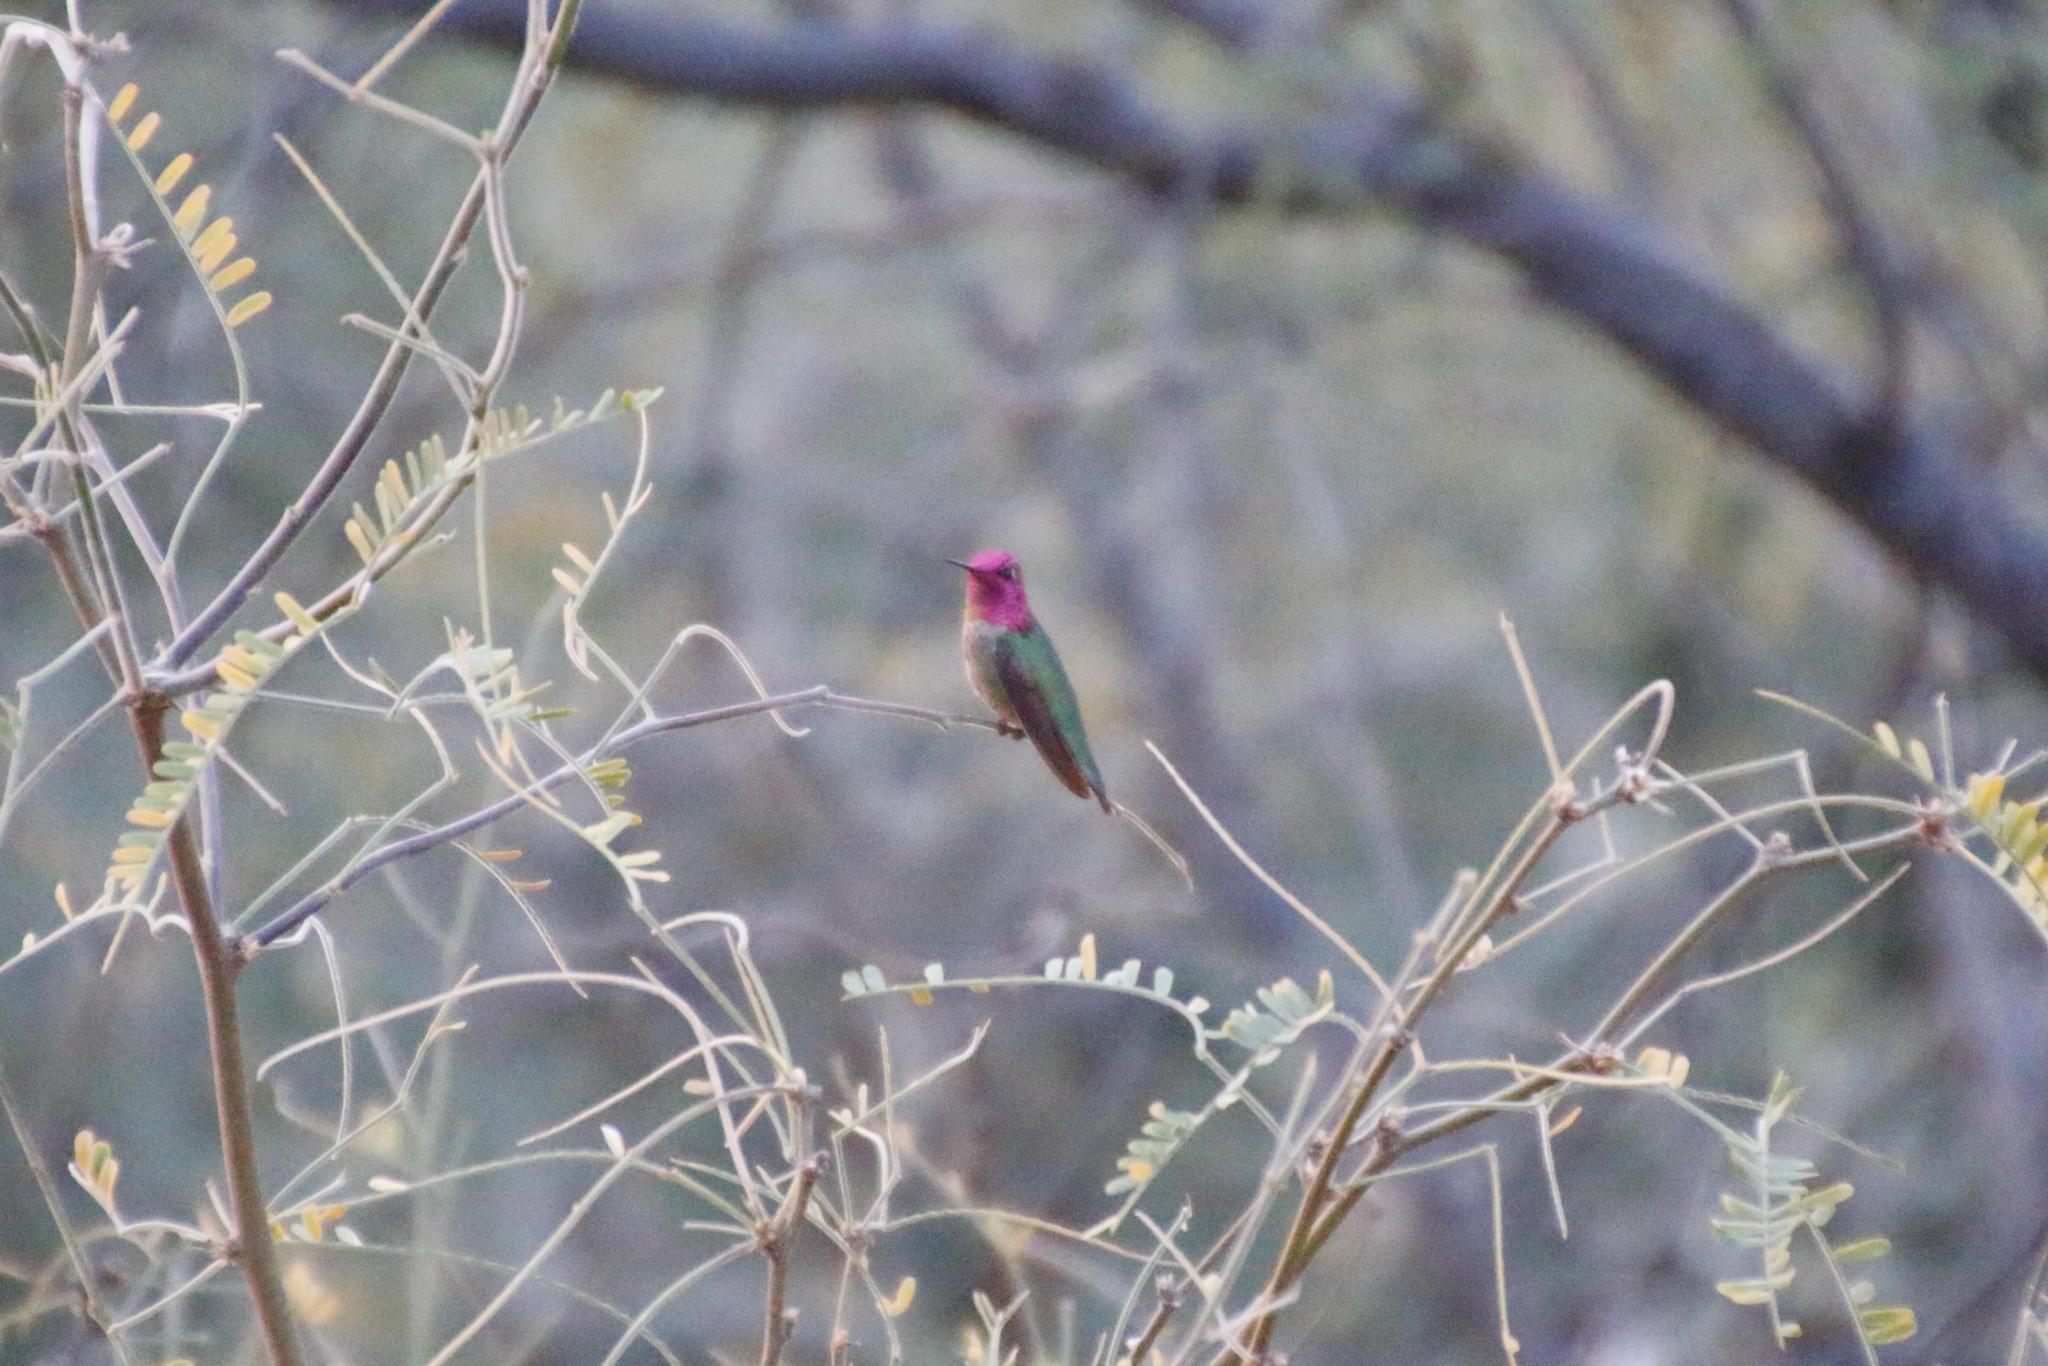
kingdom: Animalia
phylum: Chordata
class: Aves
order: Apodiformes
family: Trochilidae
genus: Calypte
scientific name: Calypte anna
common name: Anna's hummingbird
